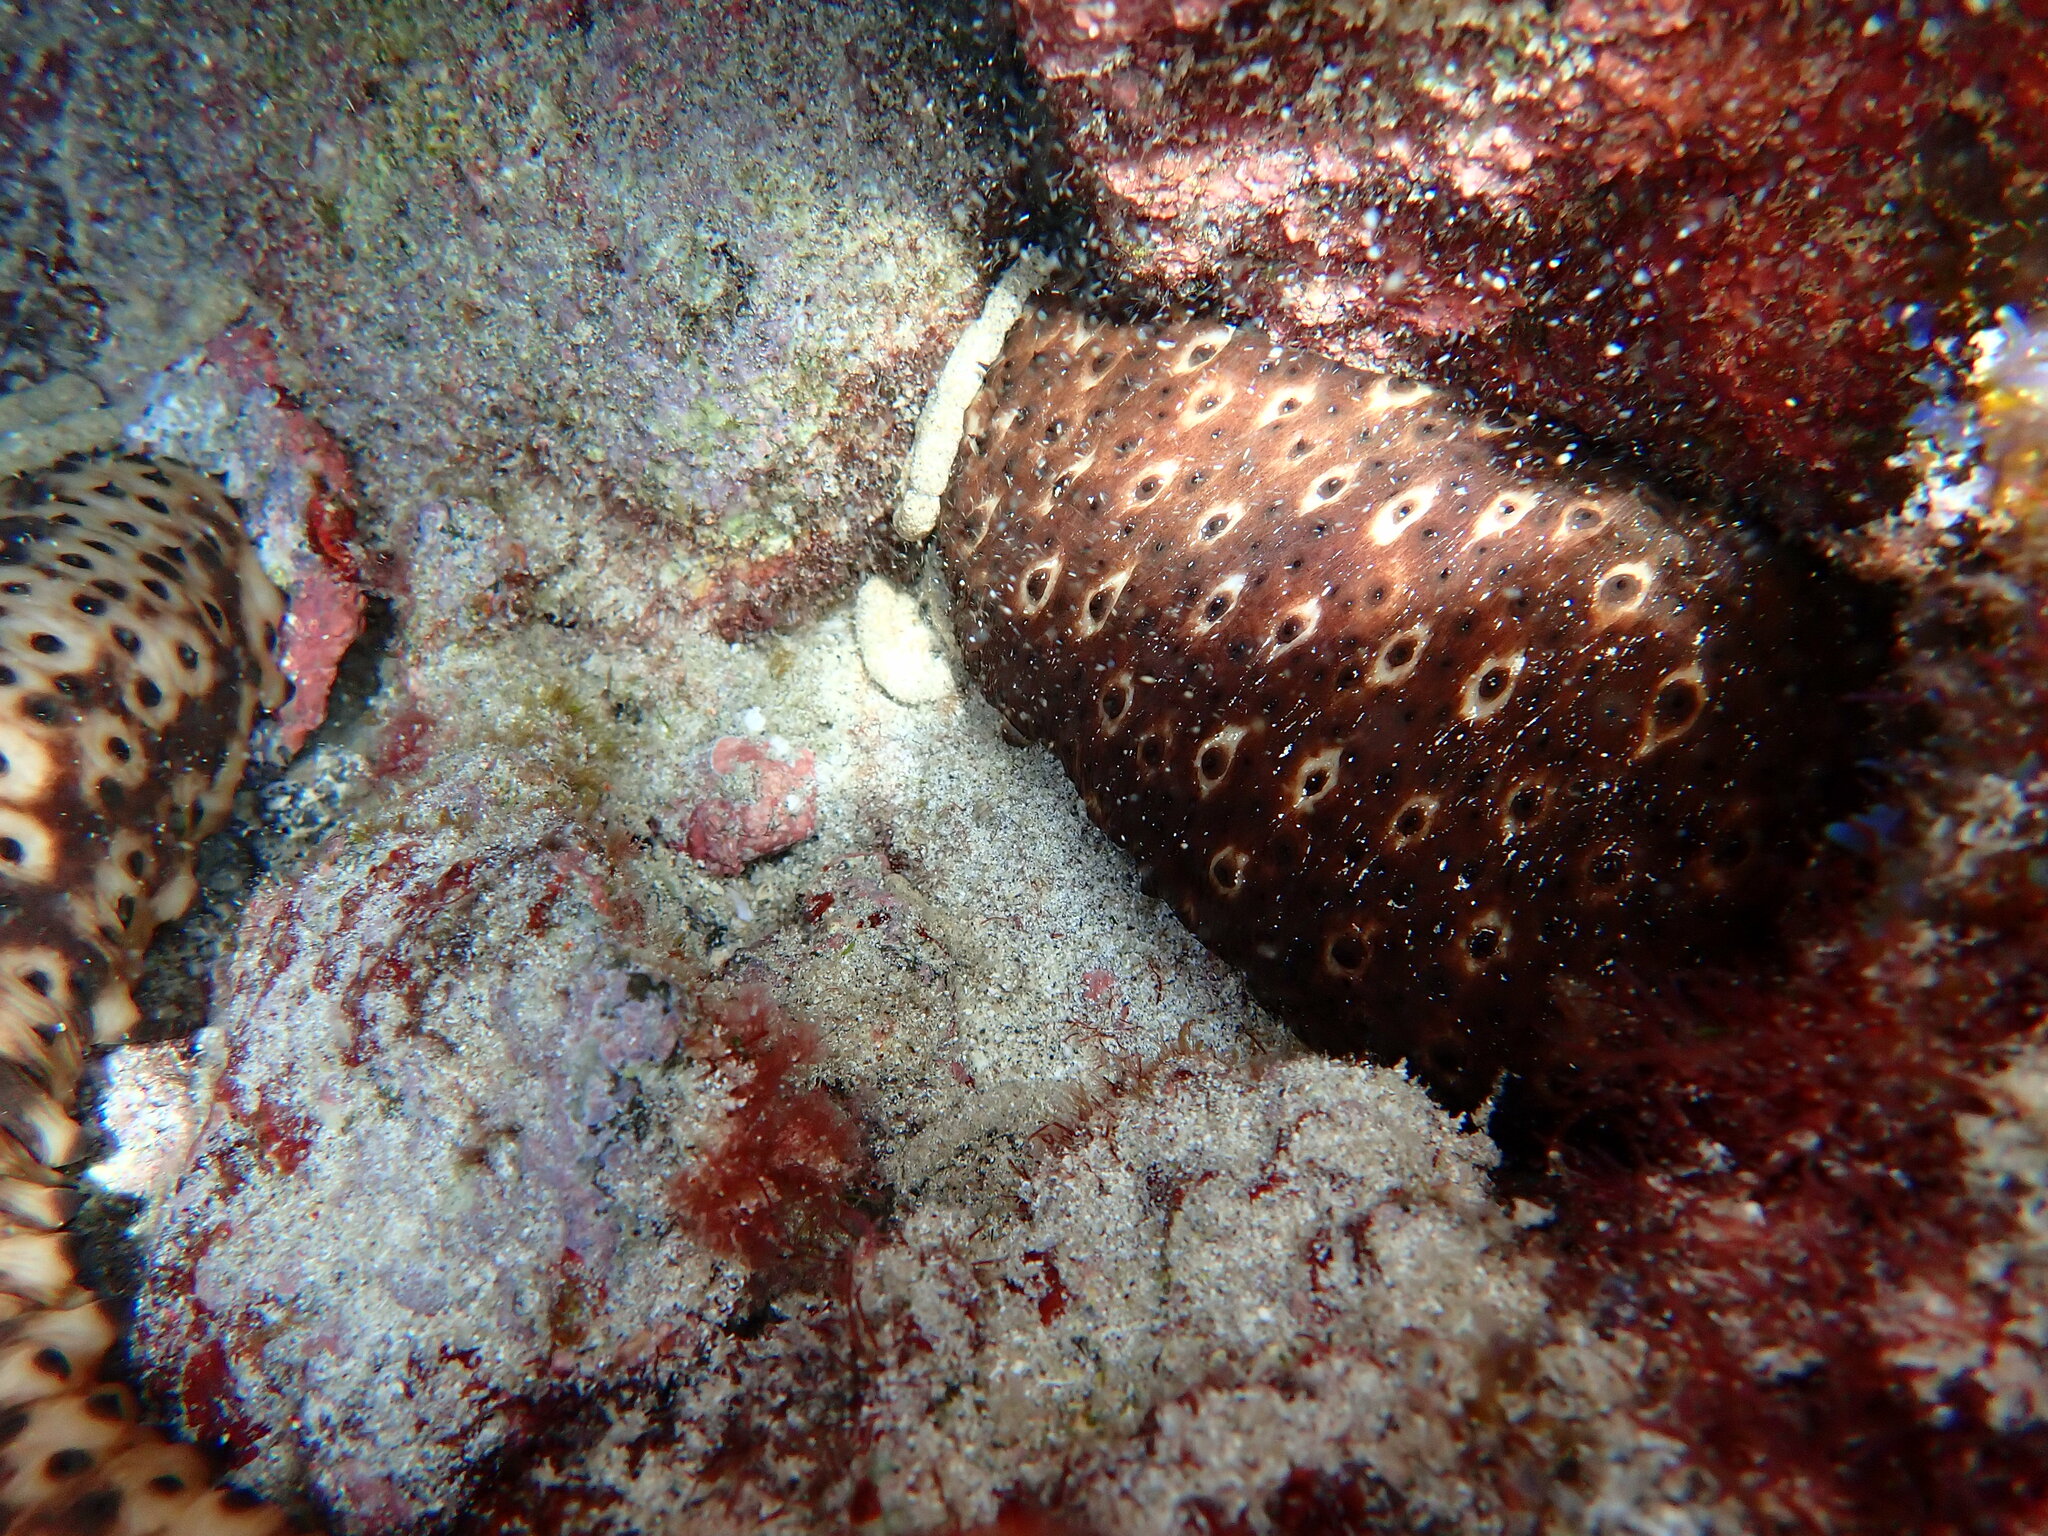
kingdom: Animalia
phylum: Echinodermata
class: Holothuroidea
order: Holothuriida
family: Holothuriidae
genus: Holothuria
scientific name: Holothuria sanctori
